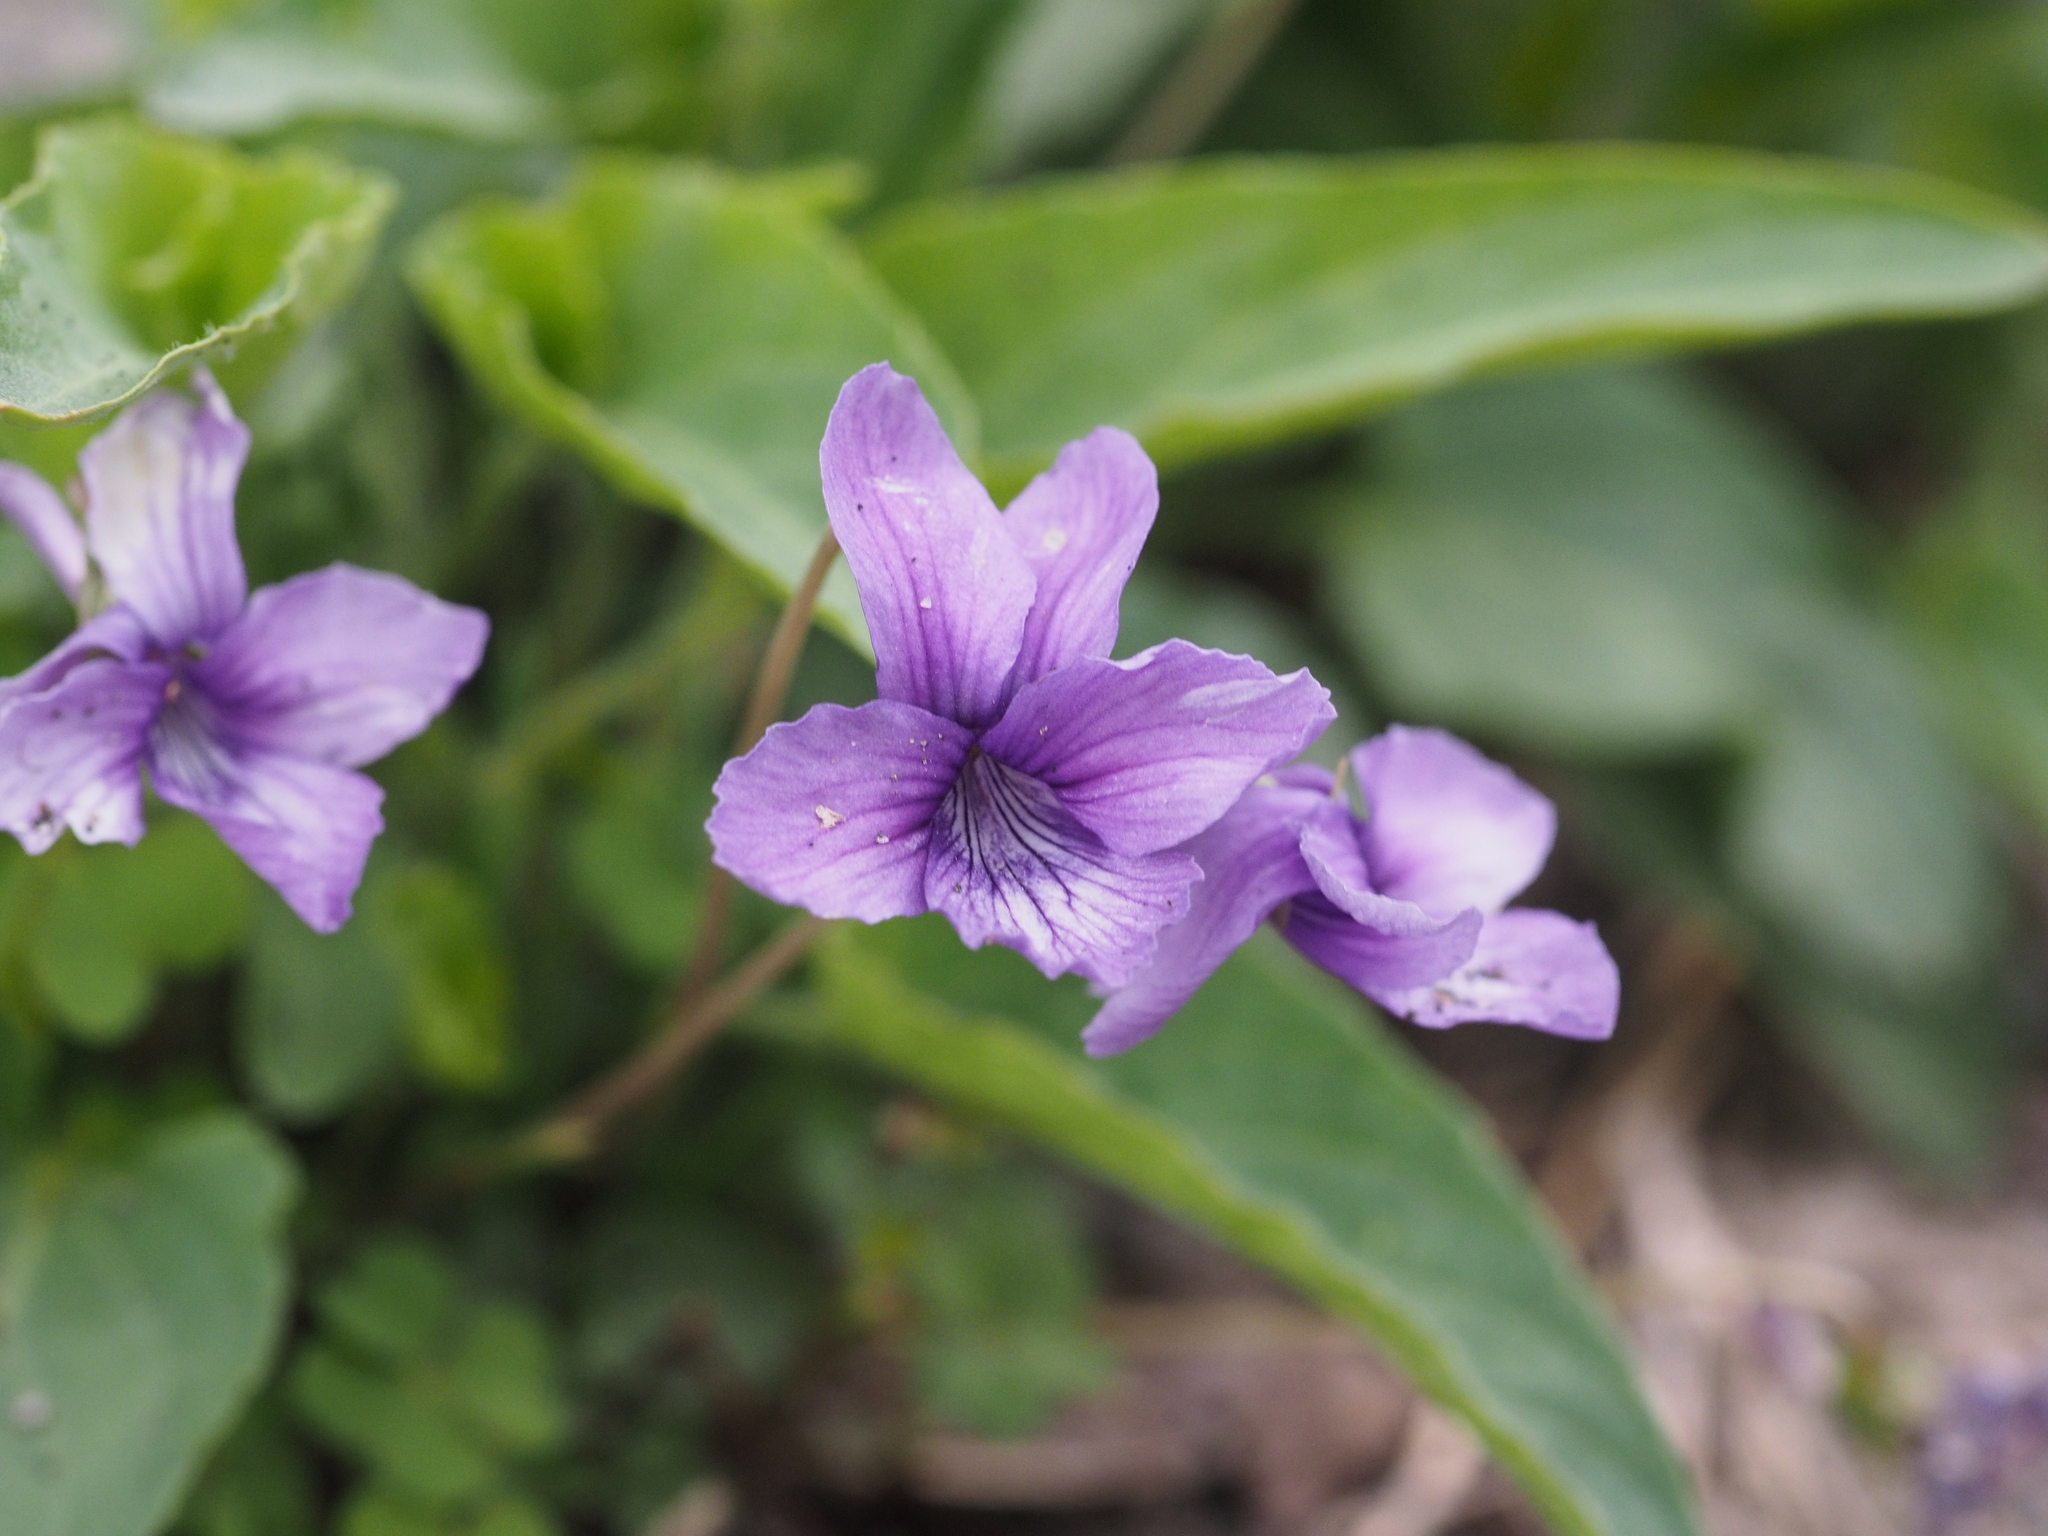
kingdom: Plantae
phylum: Tracheophyta
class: Magnoliopsida
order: Malpighiales
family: Violaceae
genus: Viola
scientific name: Viola philippica
